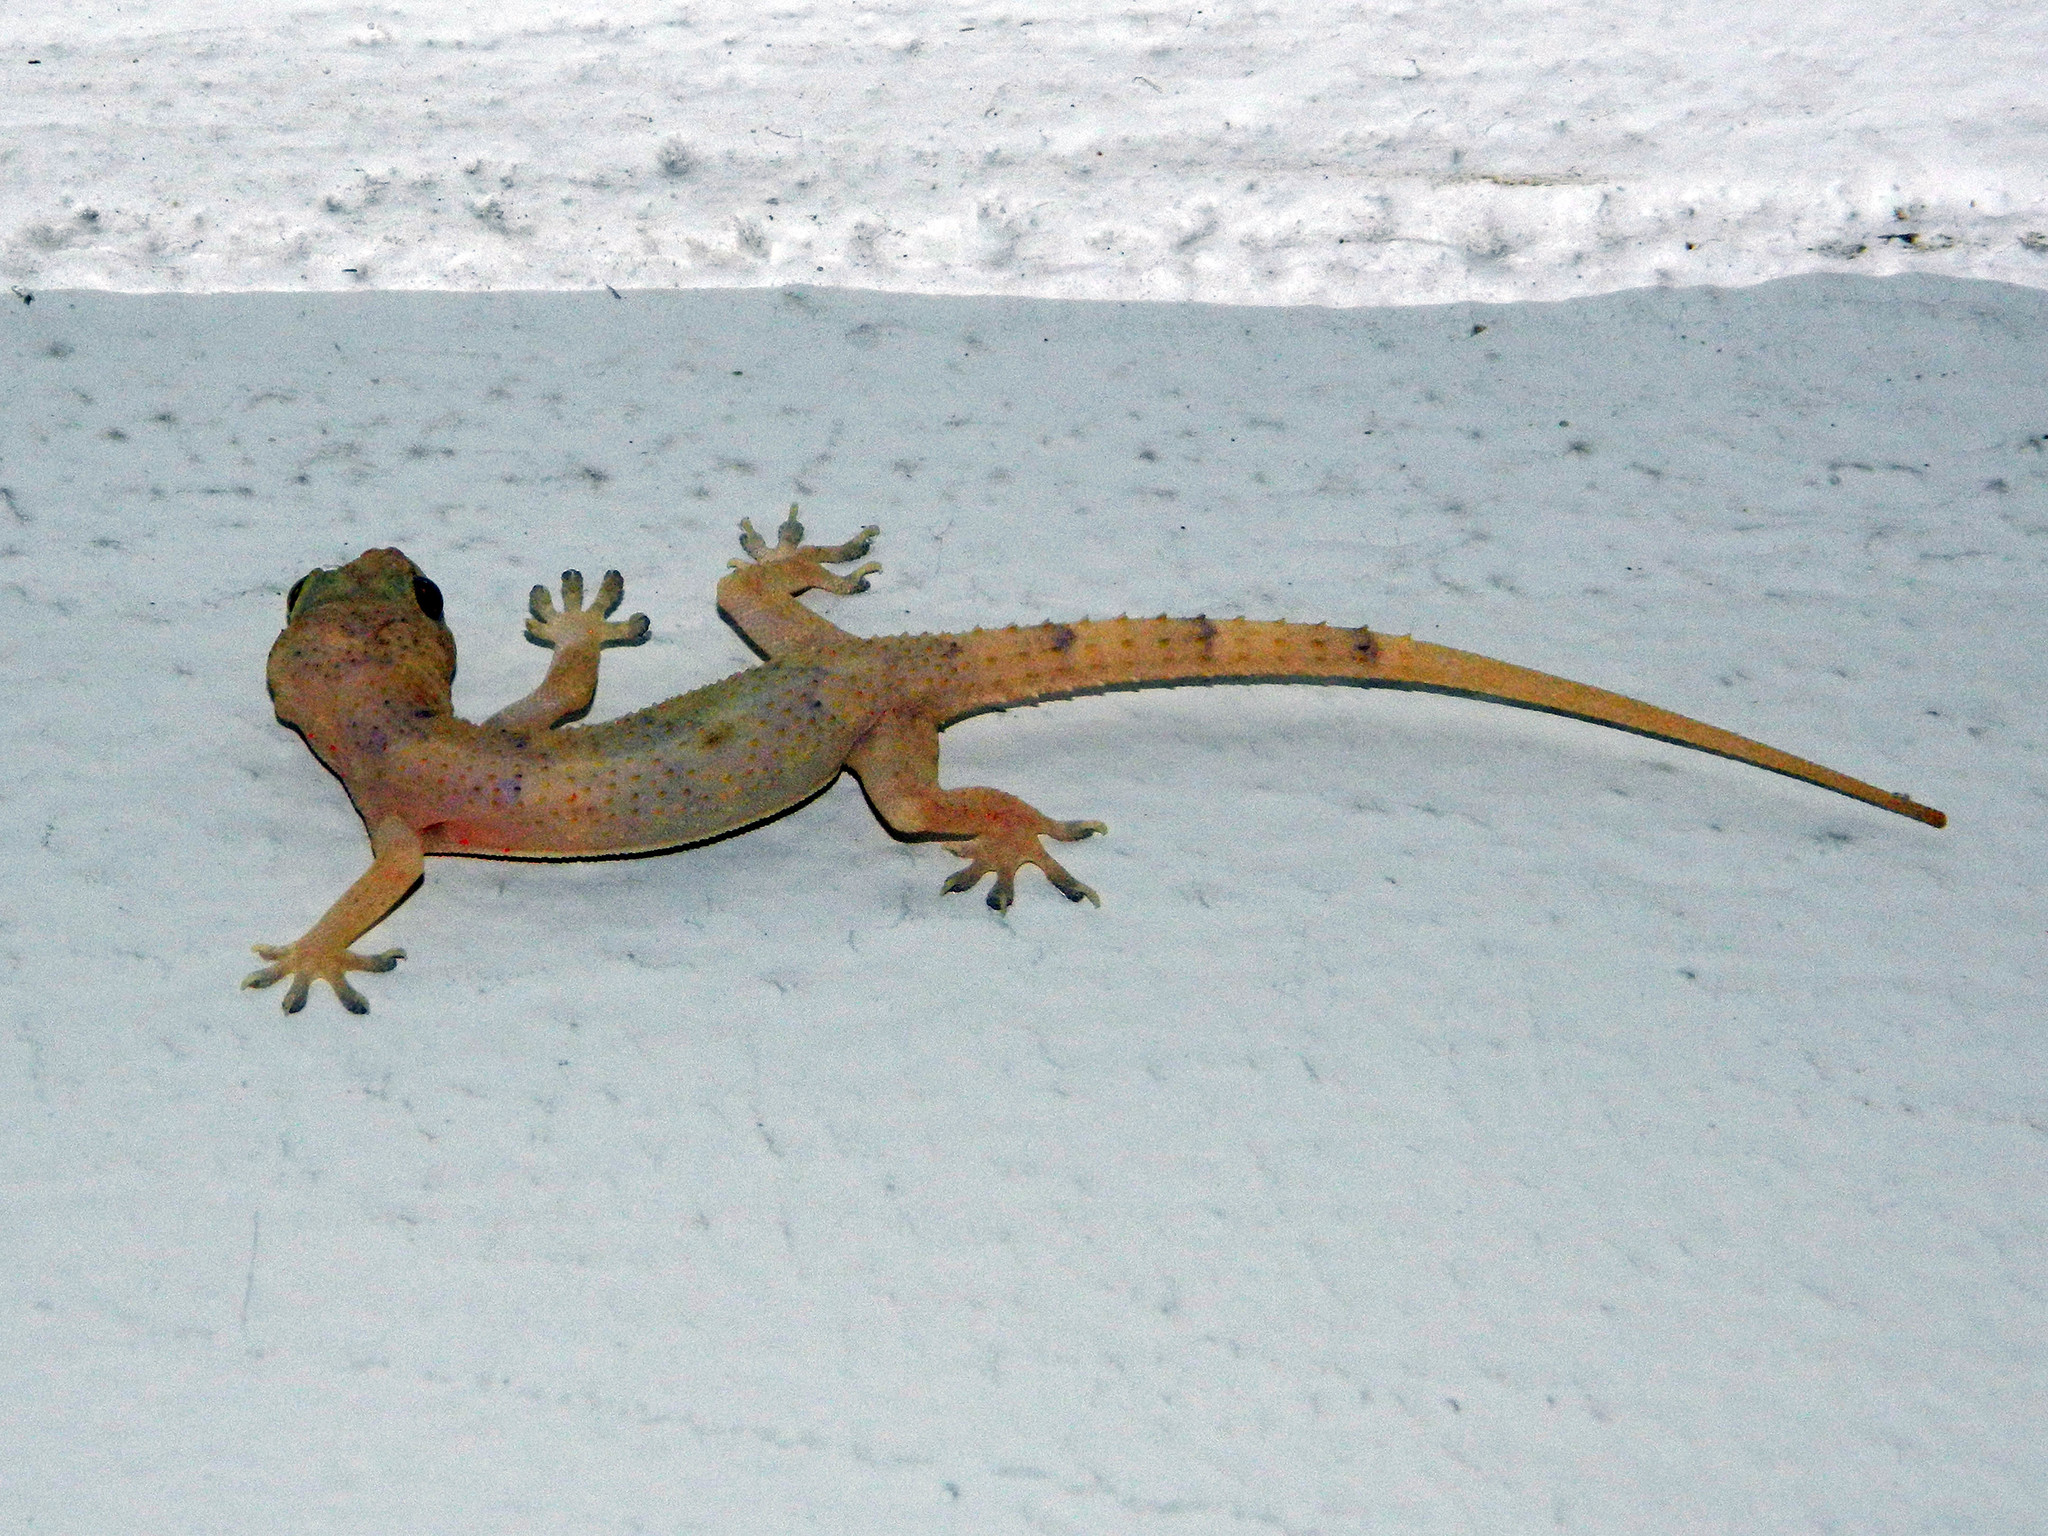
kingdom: Animalia
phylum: Chordata
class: Squamata
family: Gekkonidae
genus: Hemidactylus
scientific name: Hemidactylus mabouia
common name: House gecko
